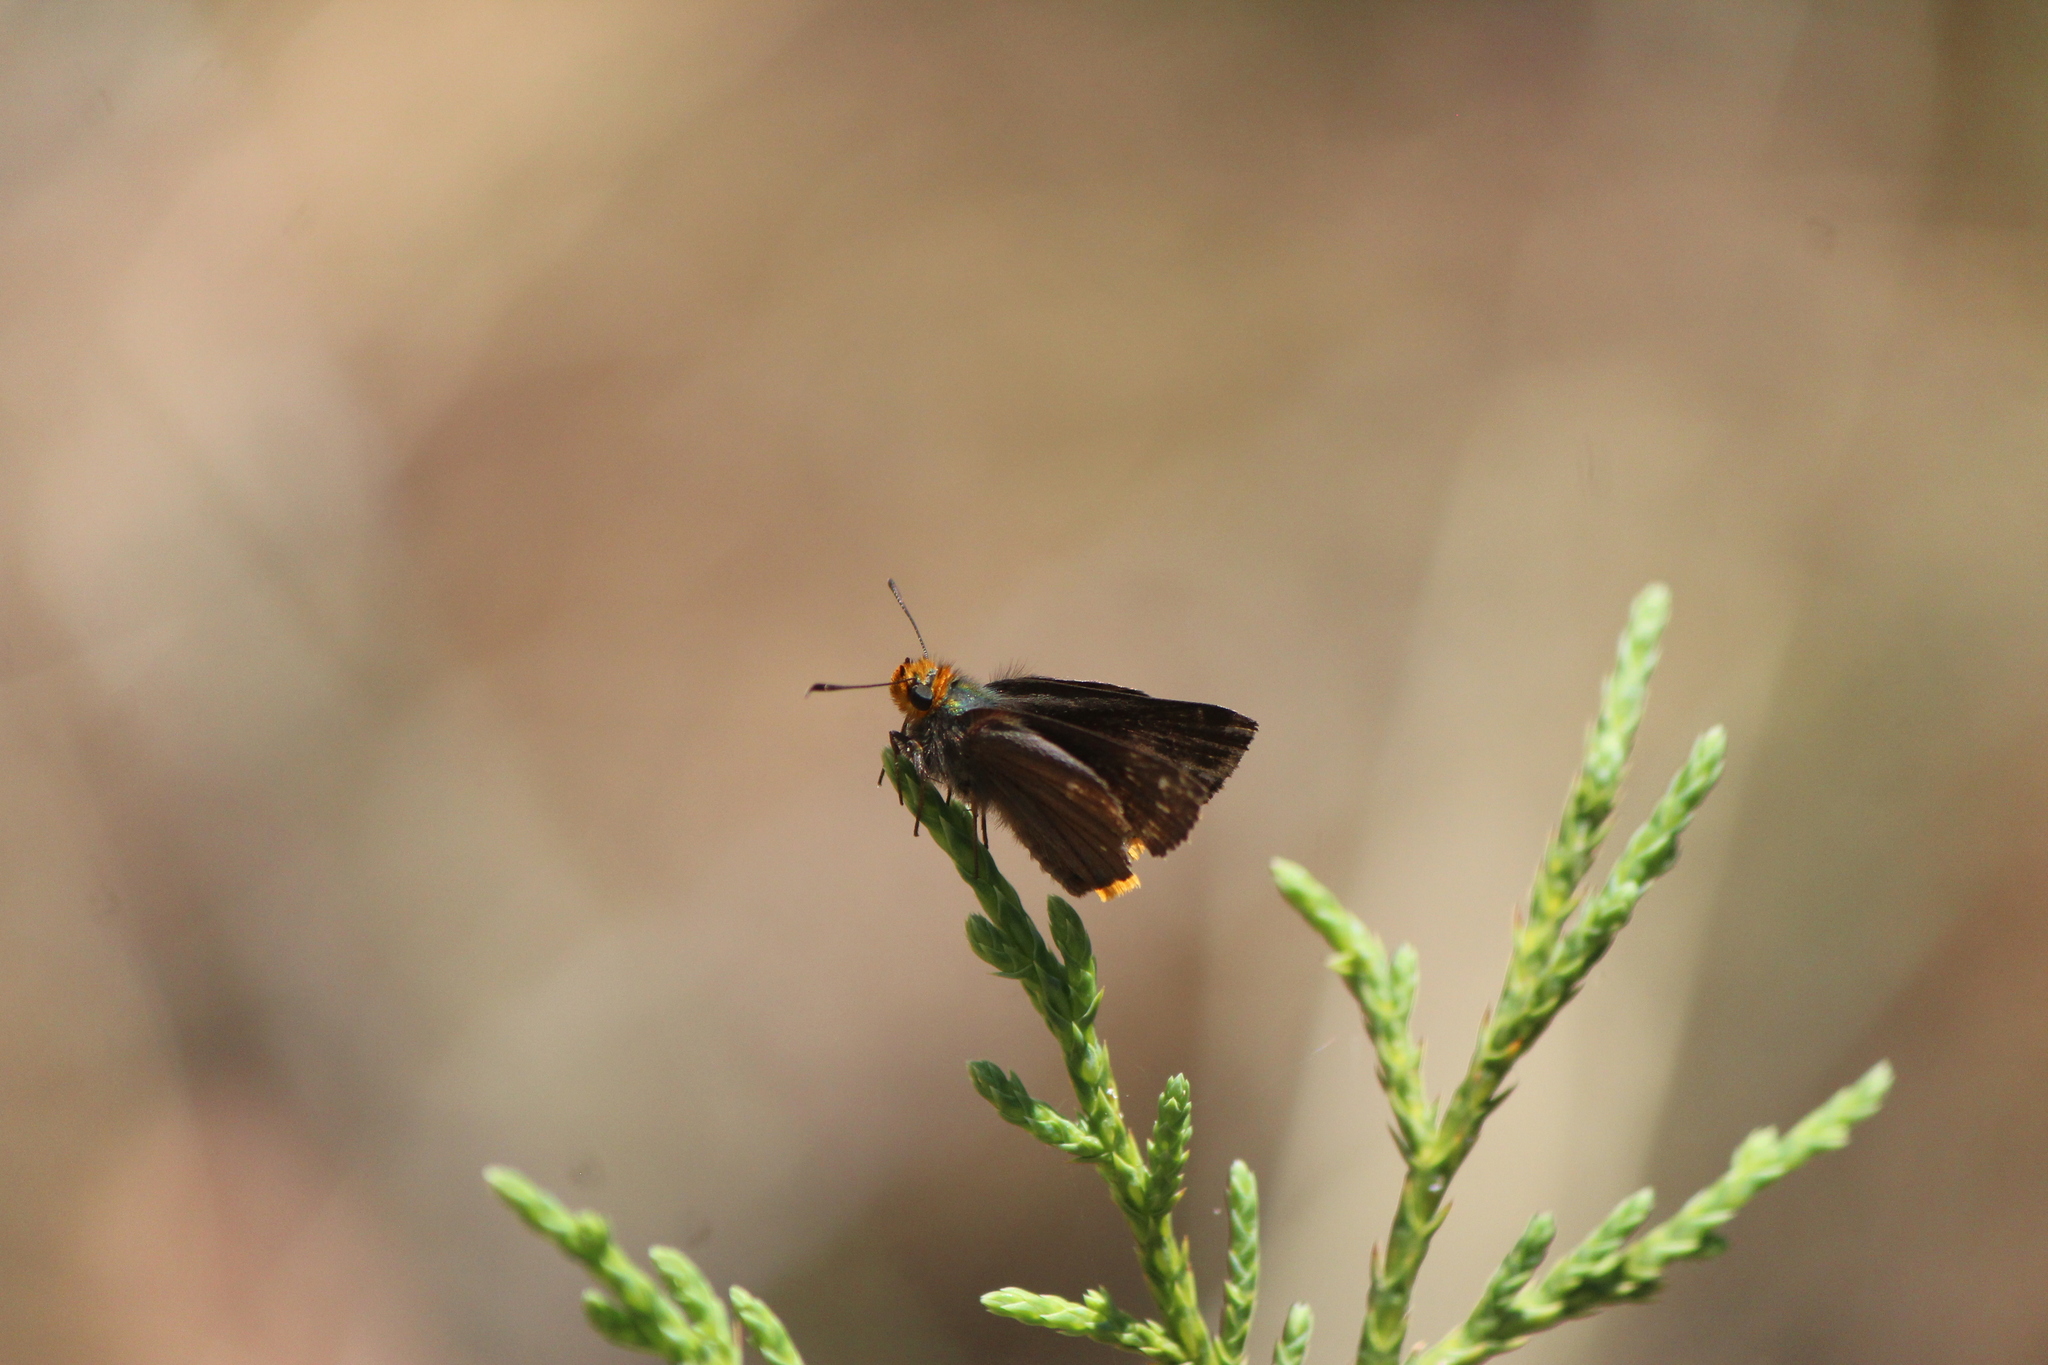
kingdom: Animalia
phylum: Arthropoda
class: Insecta
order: Lepidoptera
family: Hesperiidae
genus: Mastor
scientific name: Mastor fimbriata
